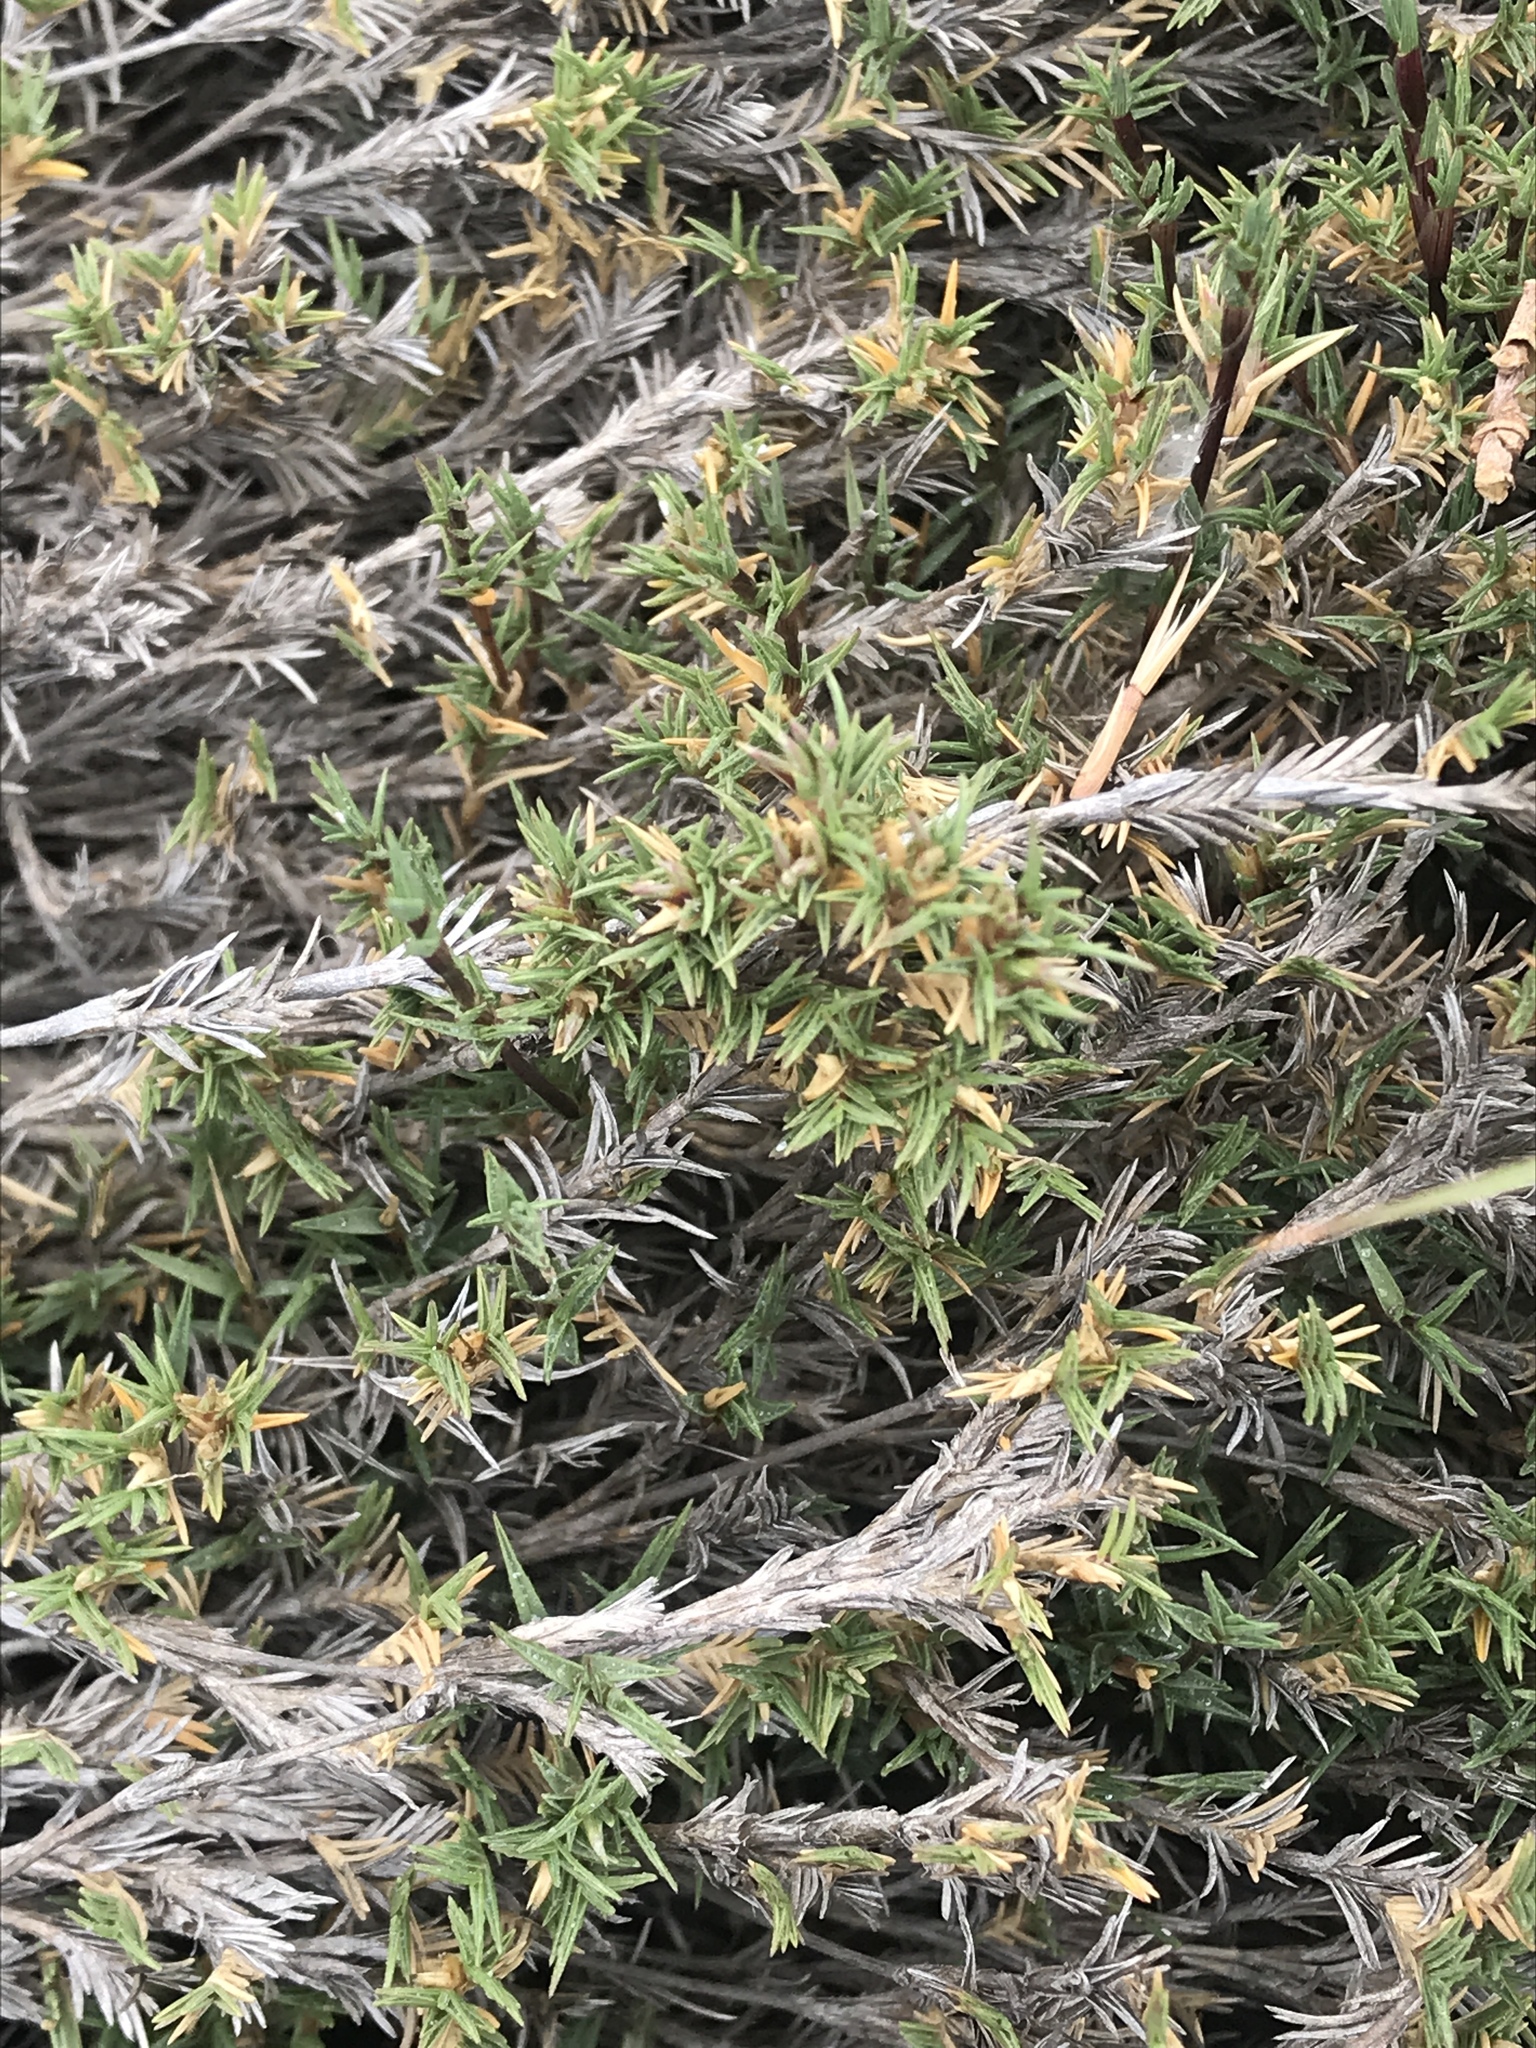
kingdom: Plantae
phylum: Tracheophyta
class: Liliopsida
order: Poales
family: Poaceae
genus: Distichlis
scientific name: Distichlis littoralis
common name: Shore grass
